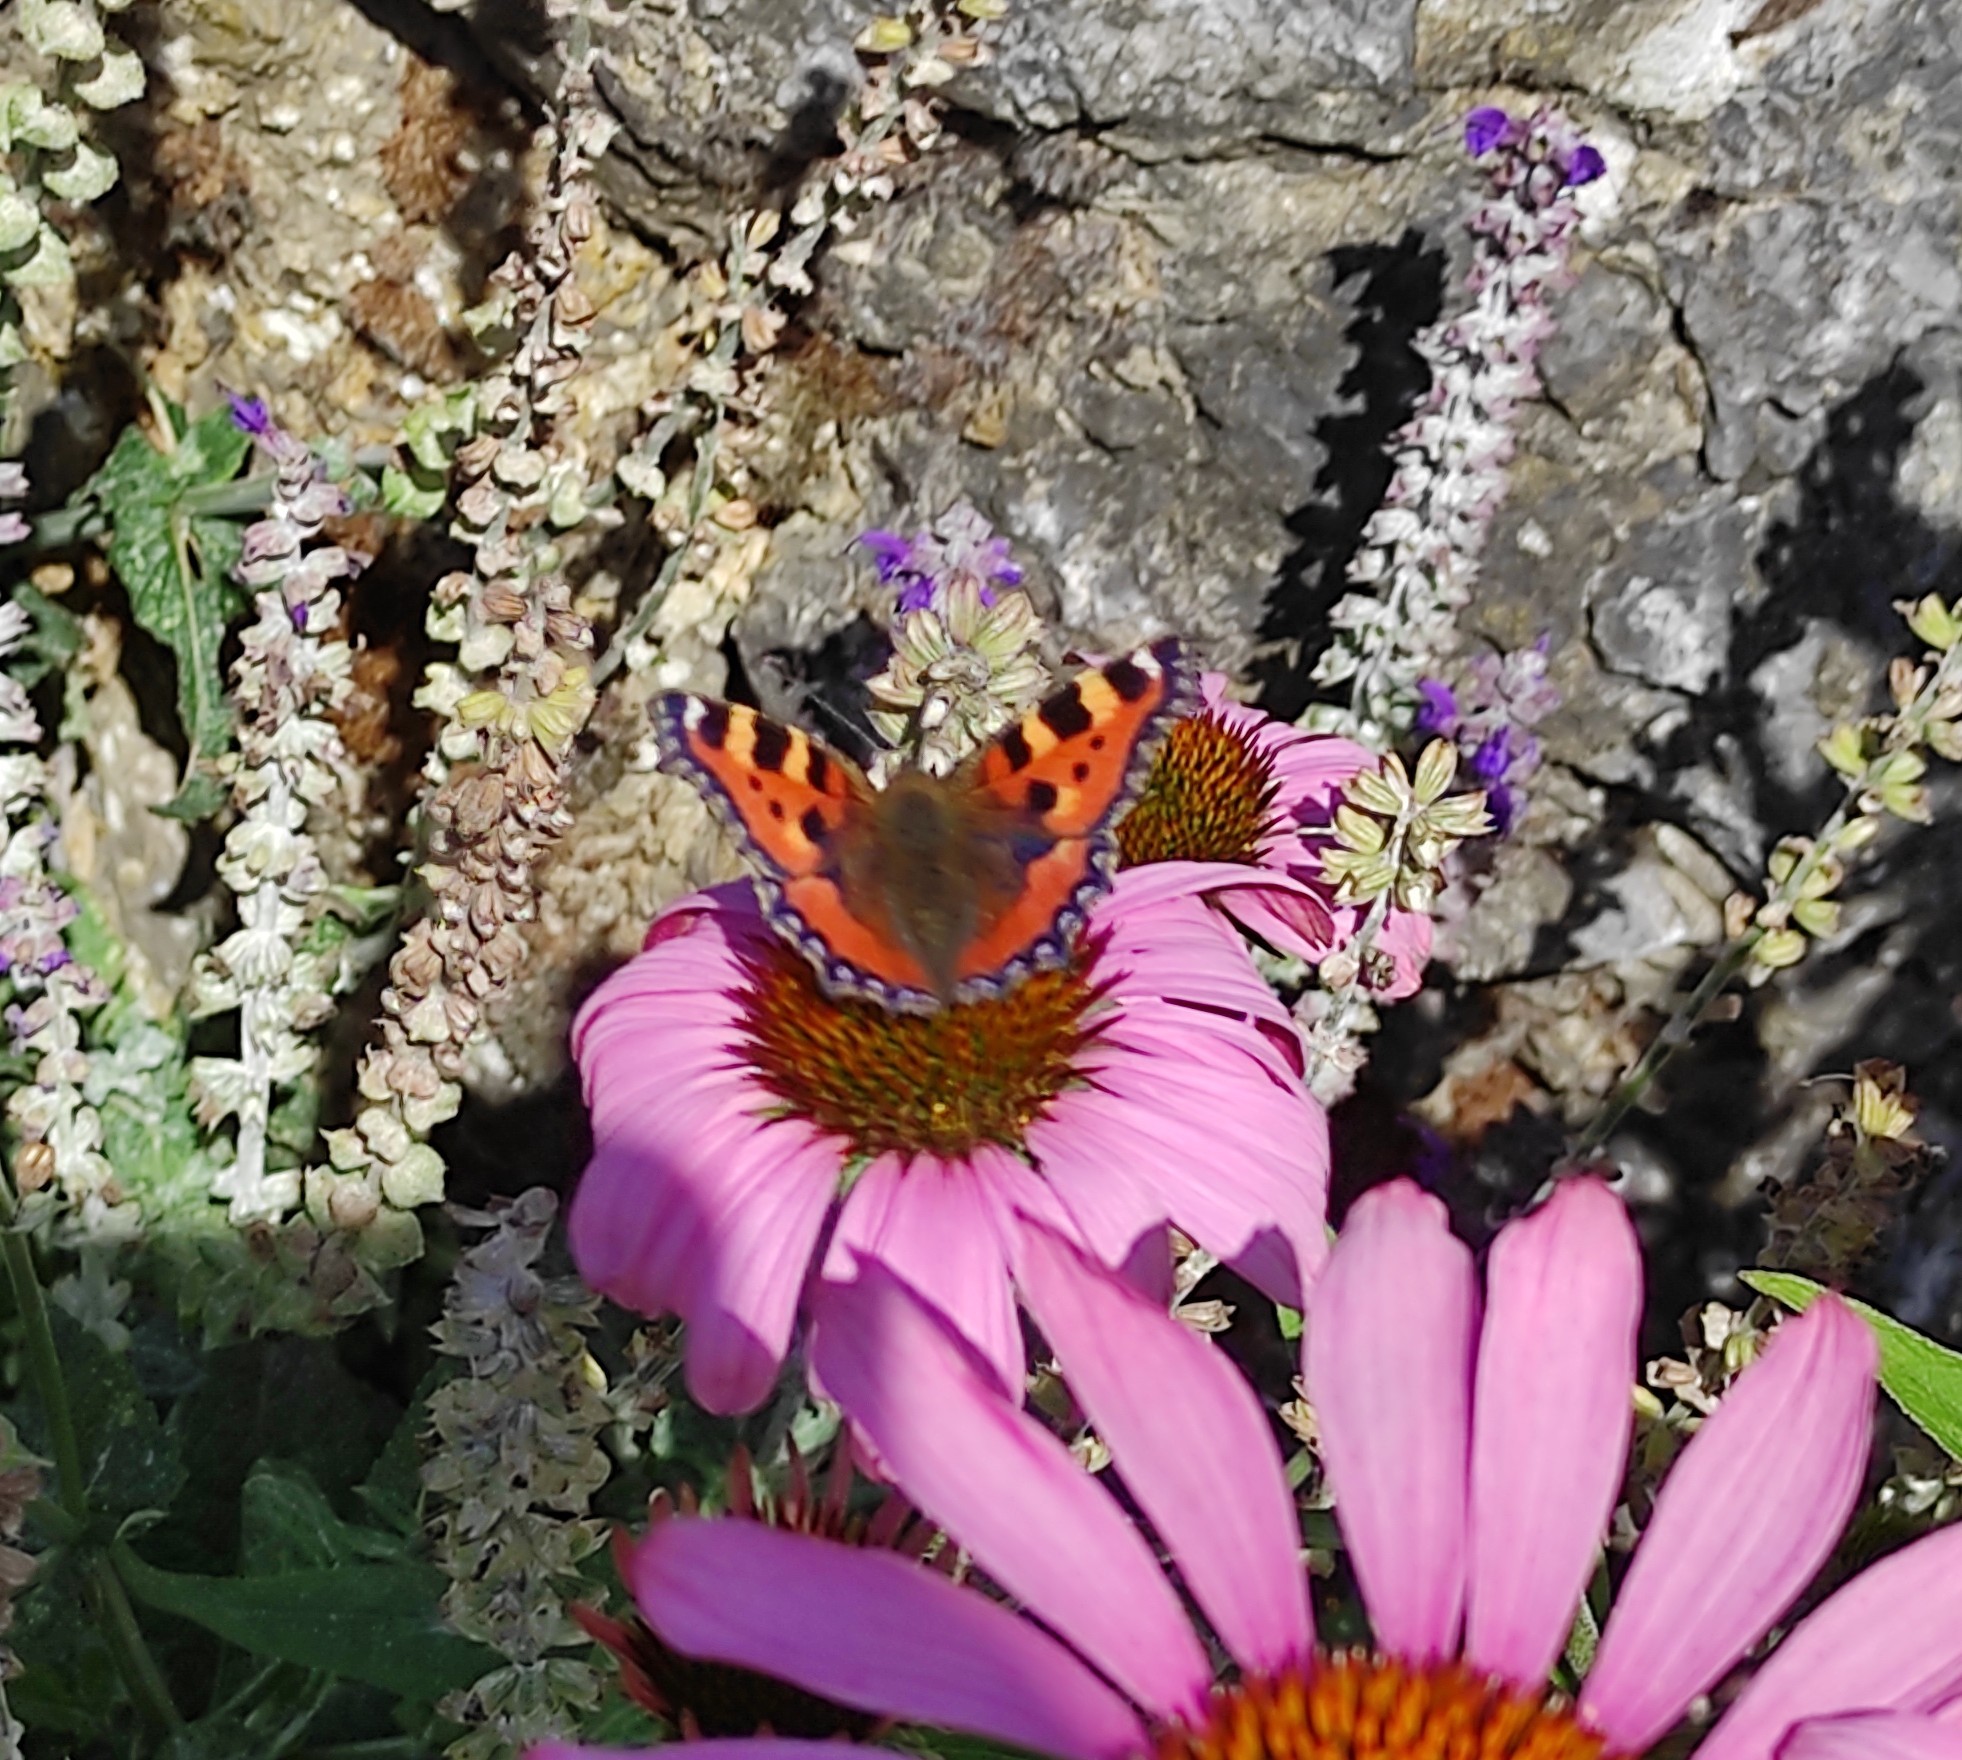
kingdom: Animalia
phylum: Arthropoda
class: Insecta
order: Lepidoptera
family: Nymphalidae
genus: Aglais
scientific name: Aglais urticae
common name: Small tortoiseshell
